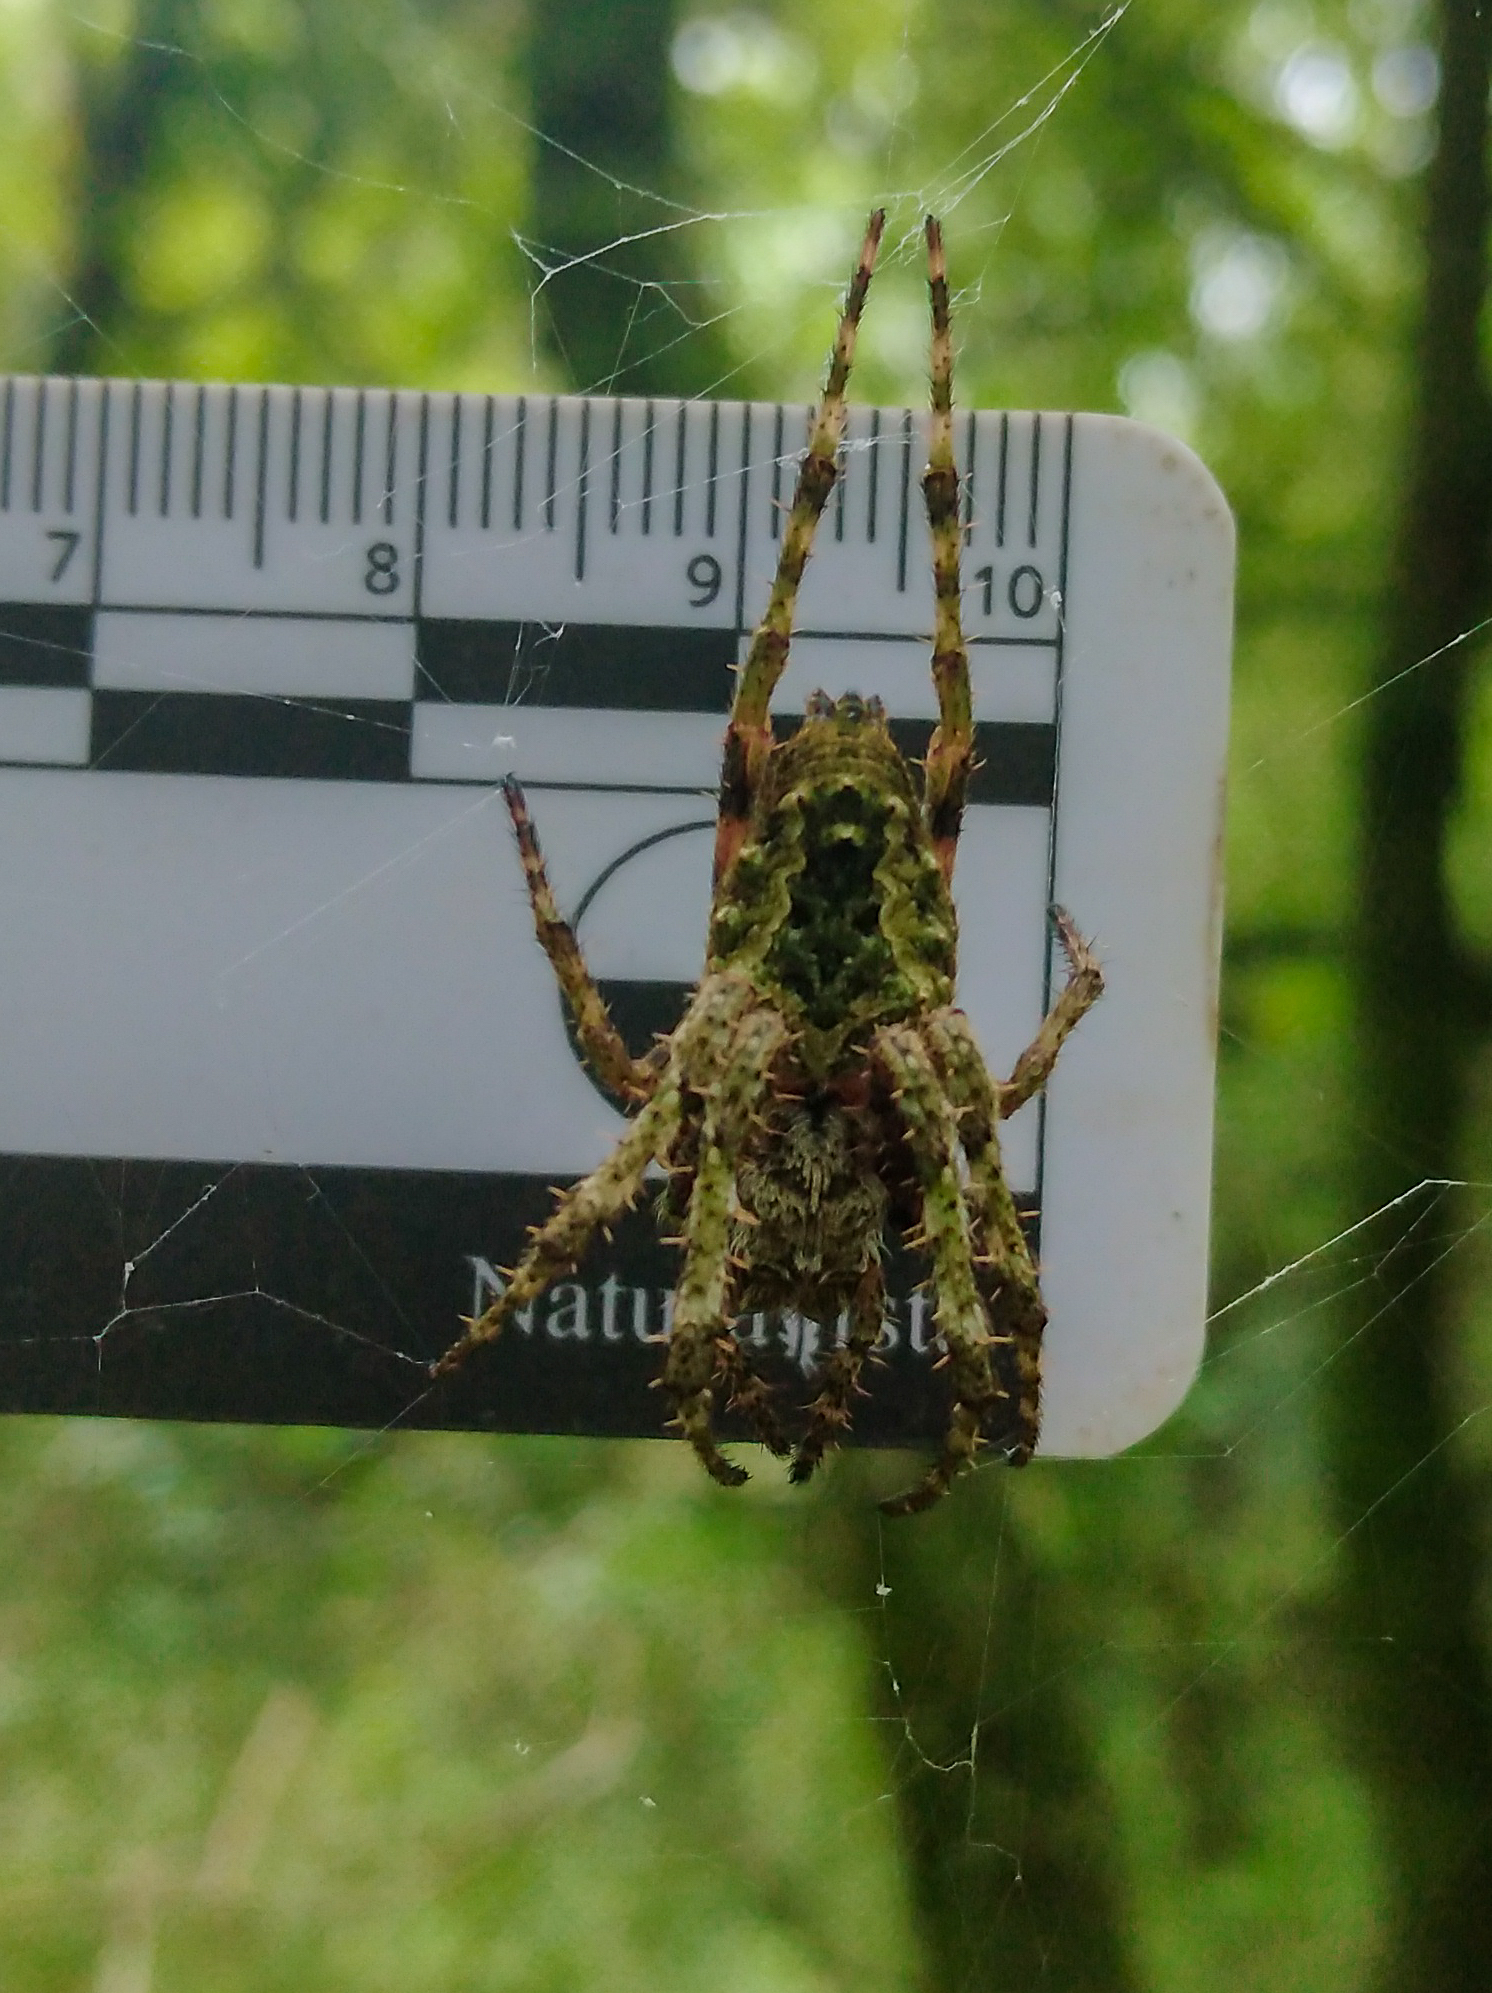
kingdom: Animalia
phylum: Arthropoda
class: Arachnida
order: Araneae
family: Araneidae
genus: Parawixia
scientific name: Parawixia audax
